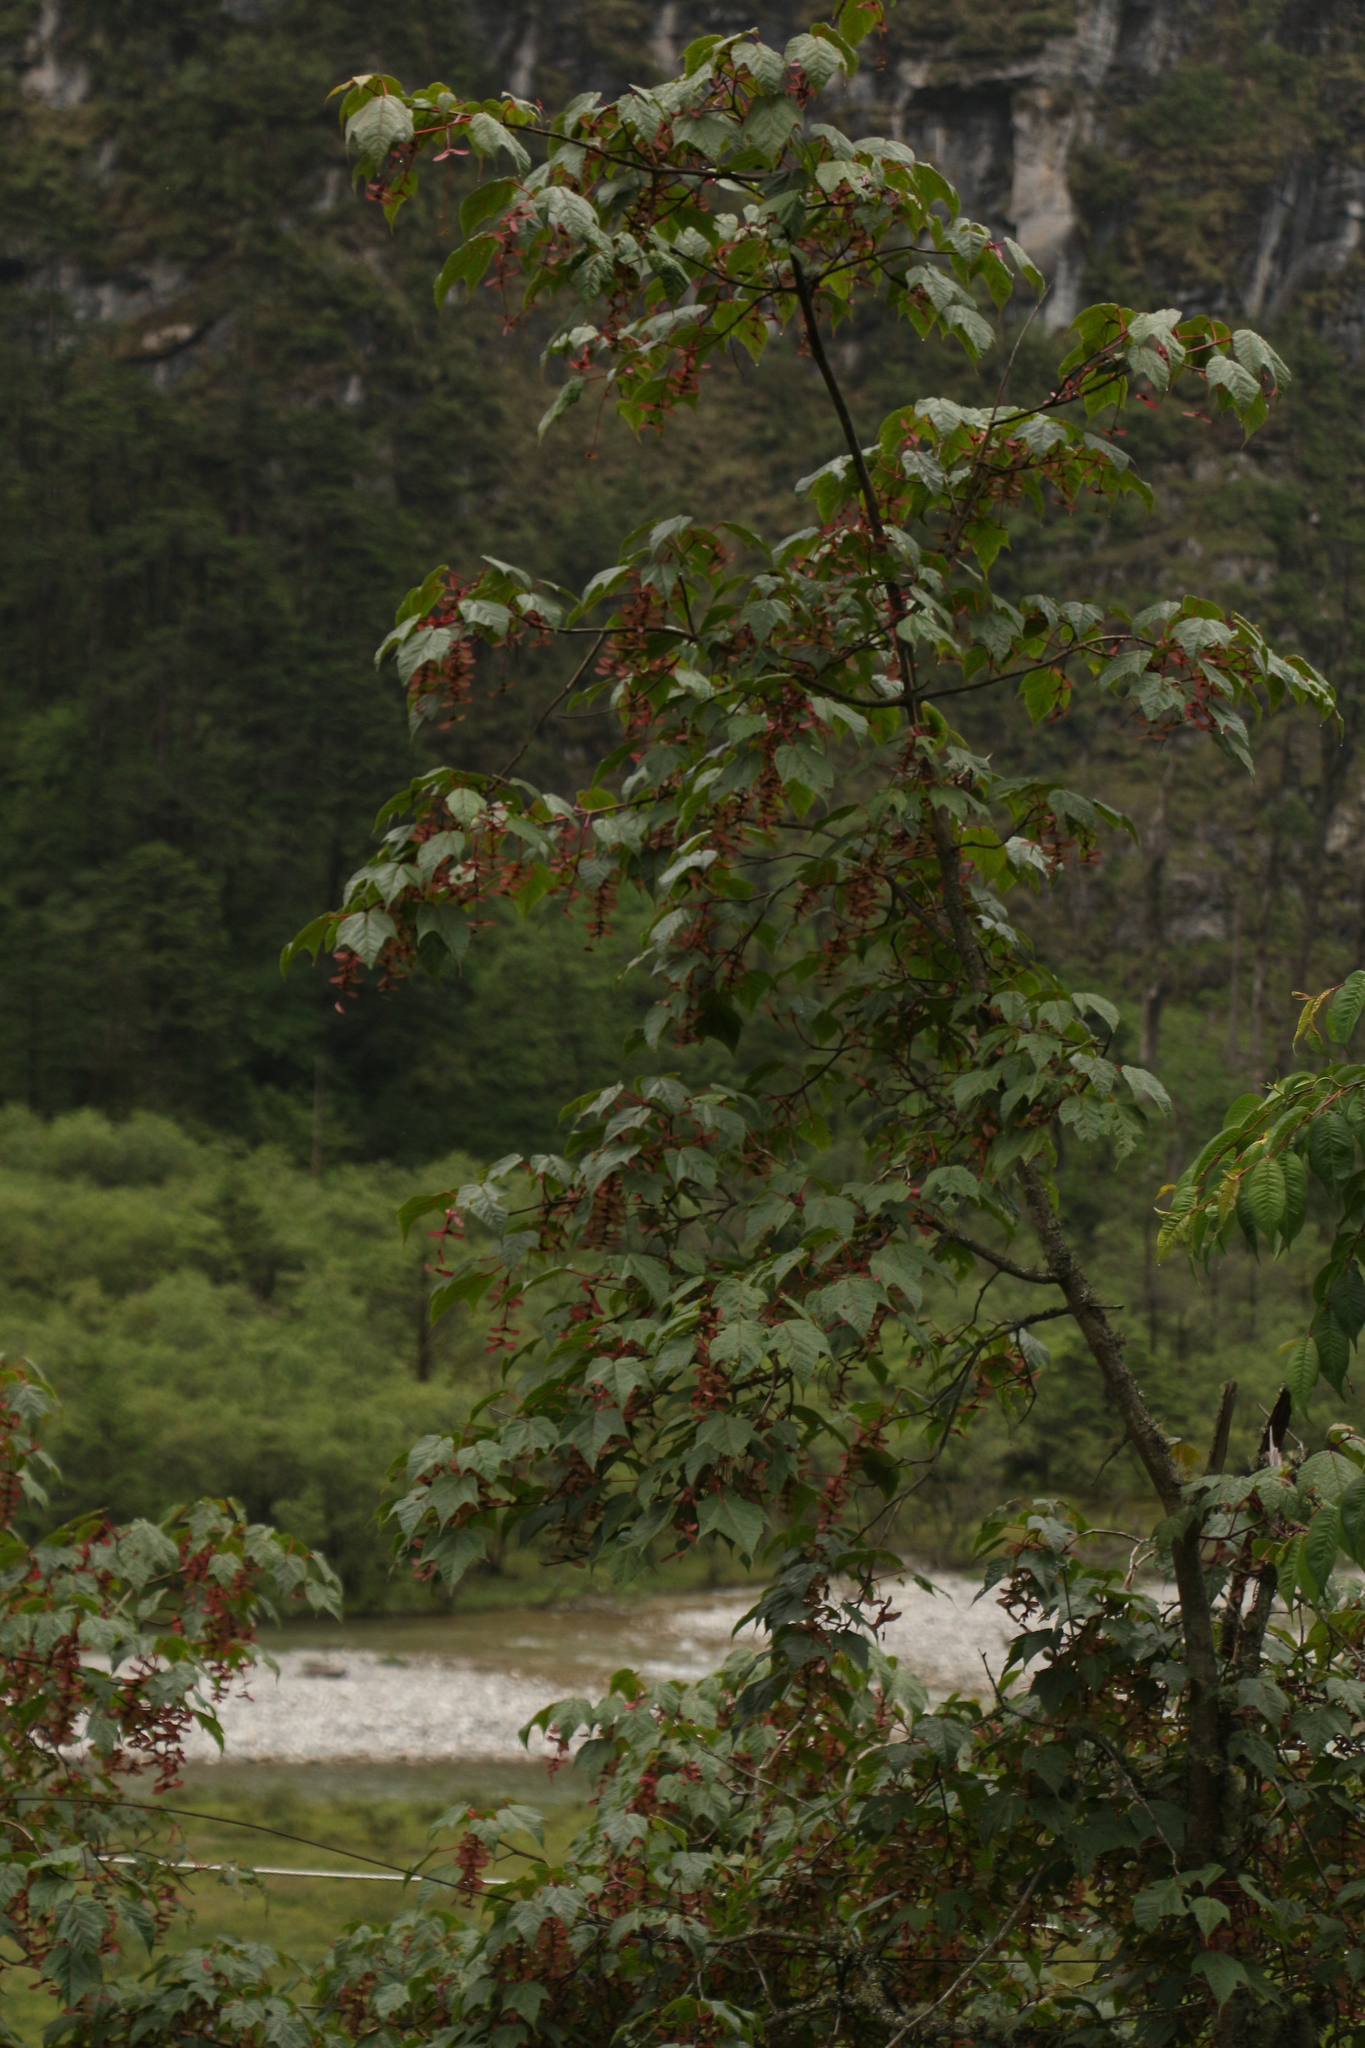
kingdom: Plantae
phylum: Tracheophyta
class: Magnoliopsida
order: Sapindales
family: Sapindaceae
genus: Acer
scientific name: Acer pectinatum
